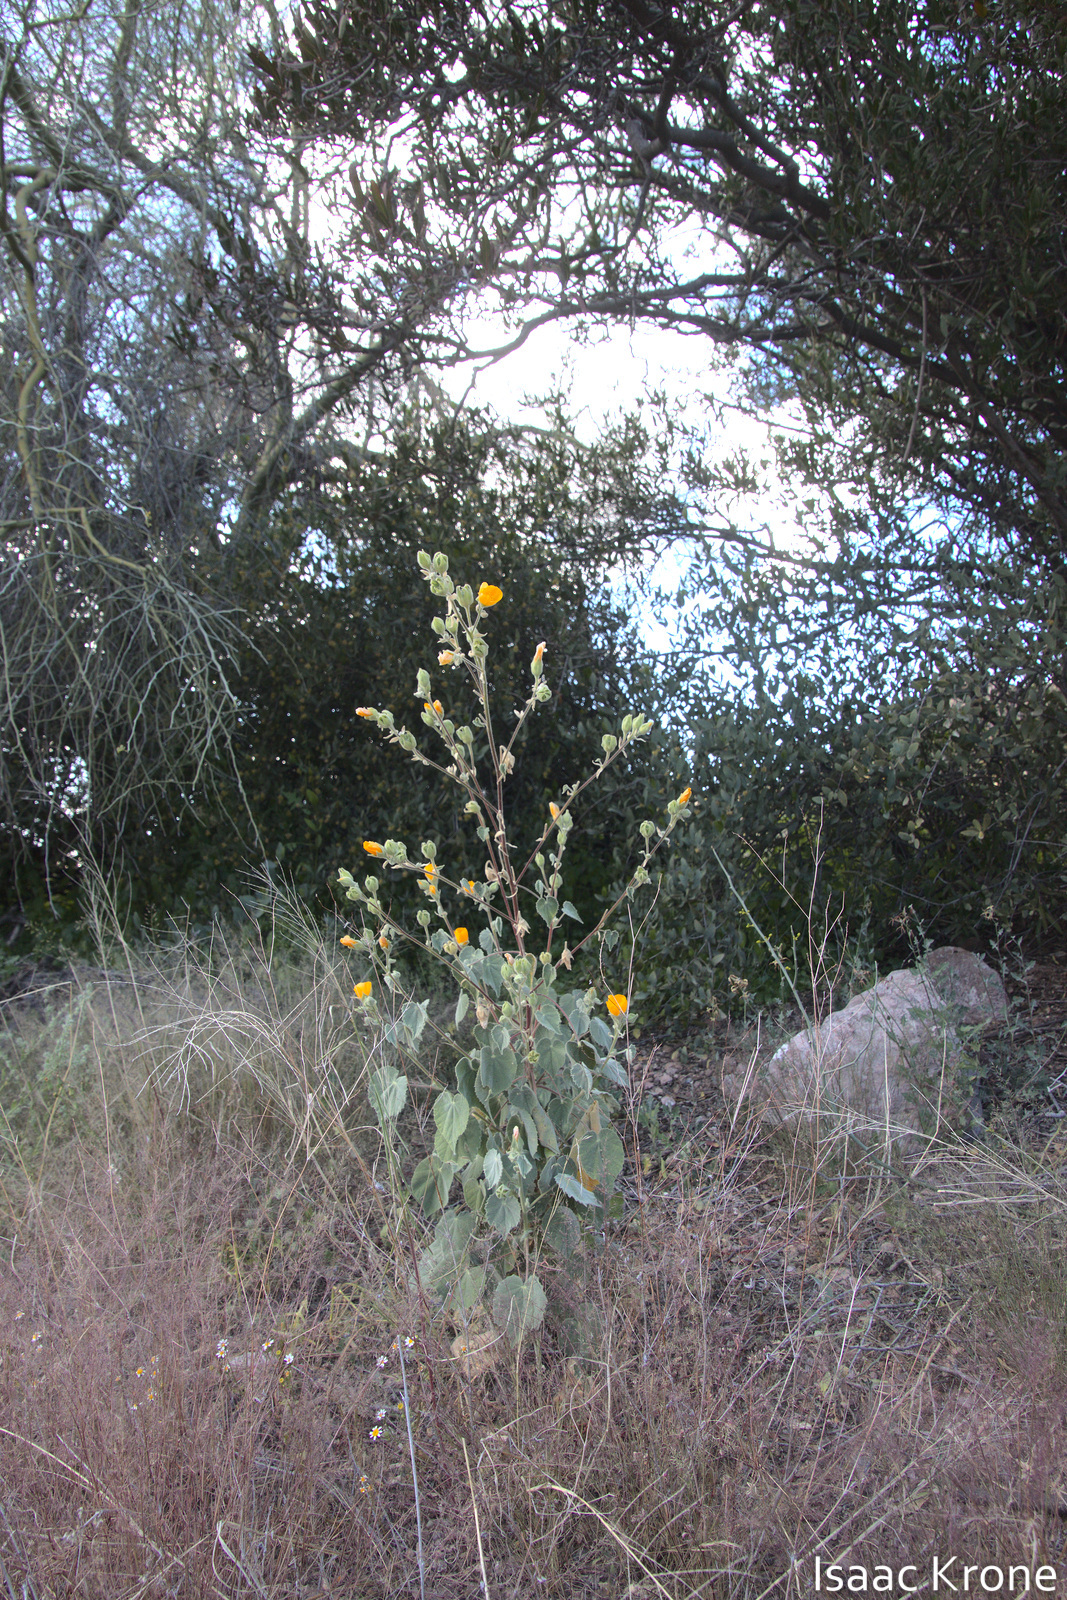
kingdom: Plantae
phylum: Tracheophyta
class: Magnoliopsida
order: Malvales
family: Malvaceae
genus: Abutilon
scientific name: Abutilon palmeri
